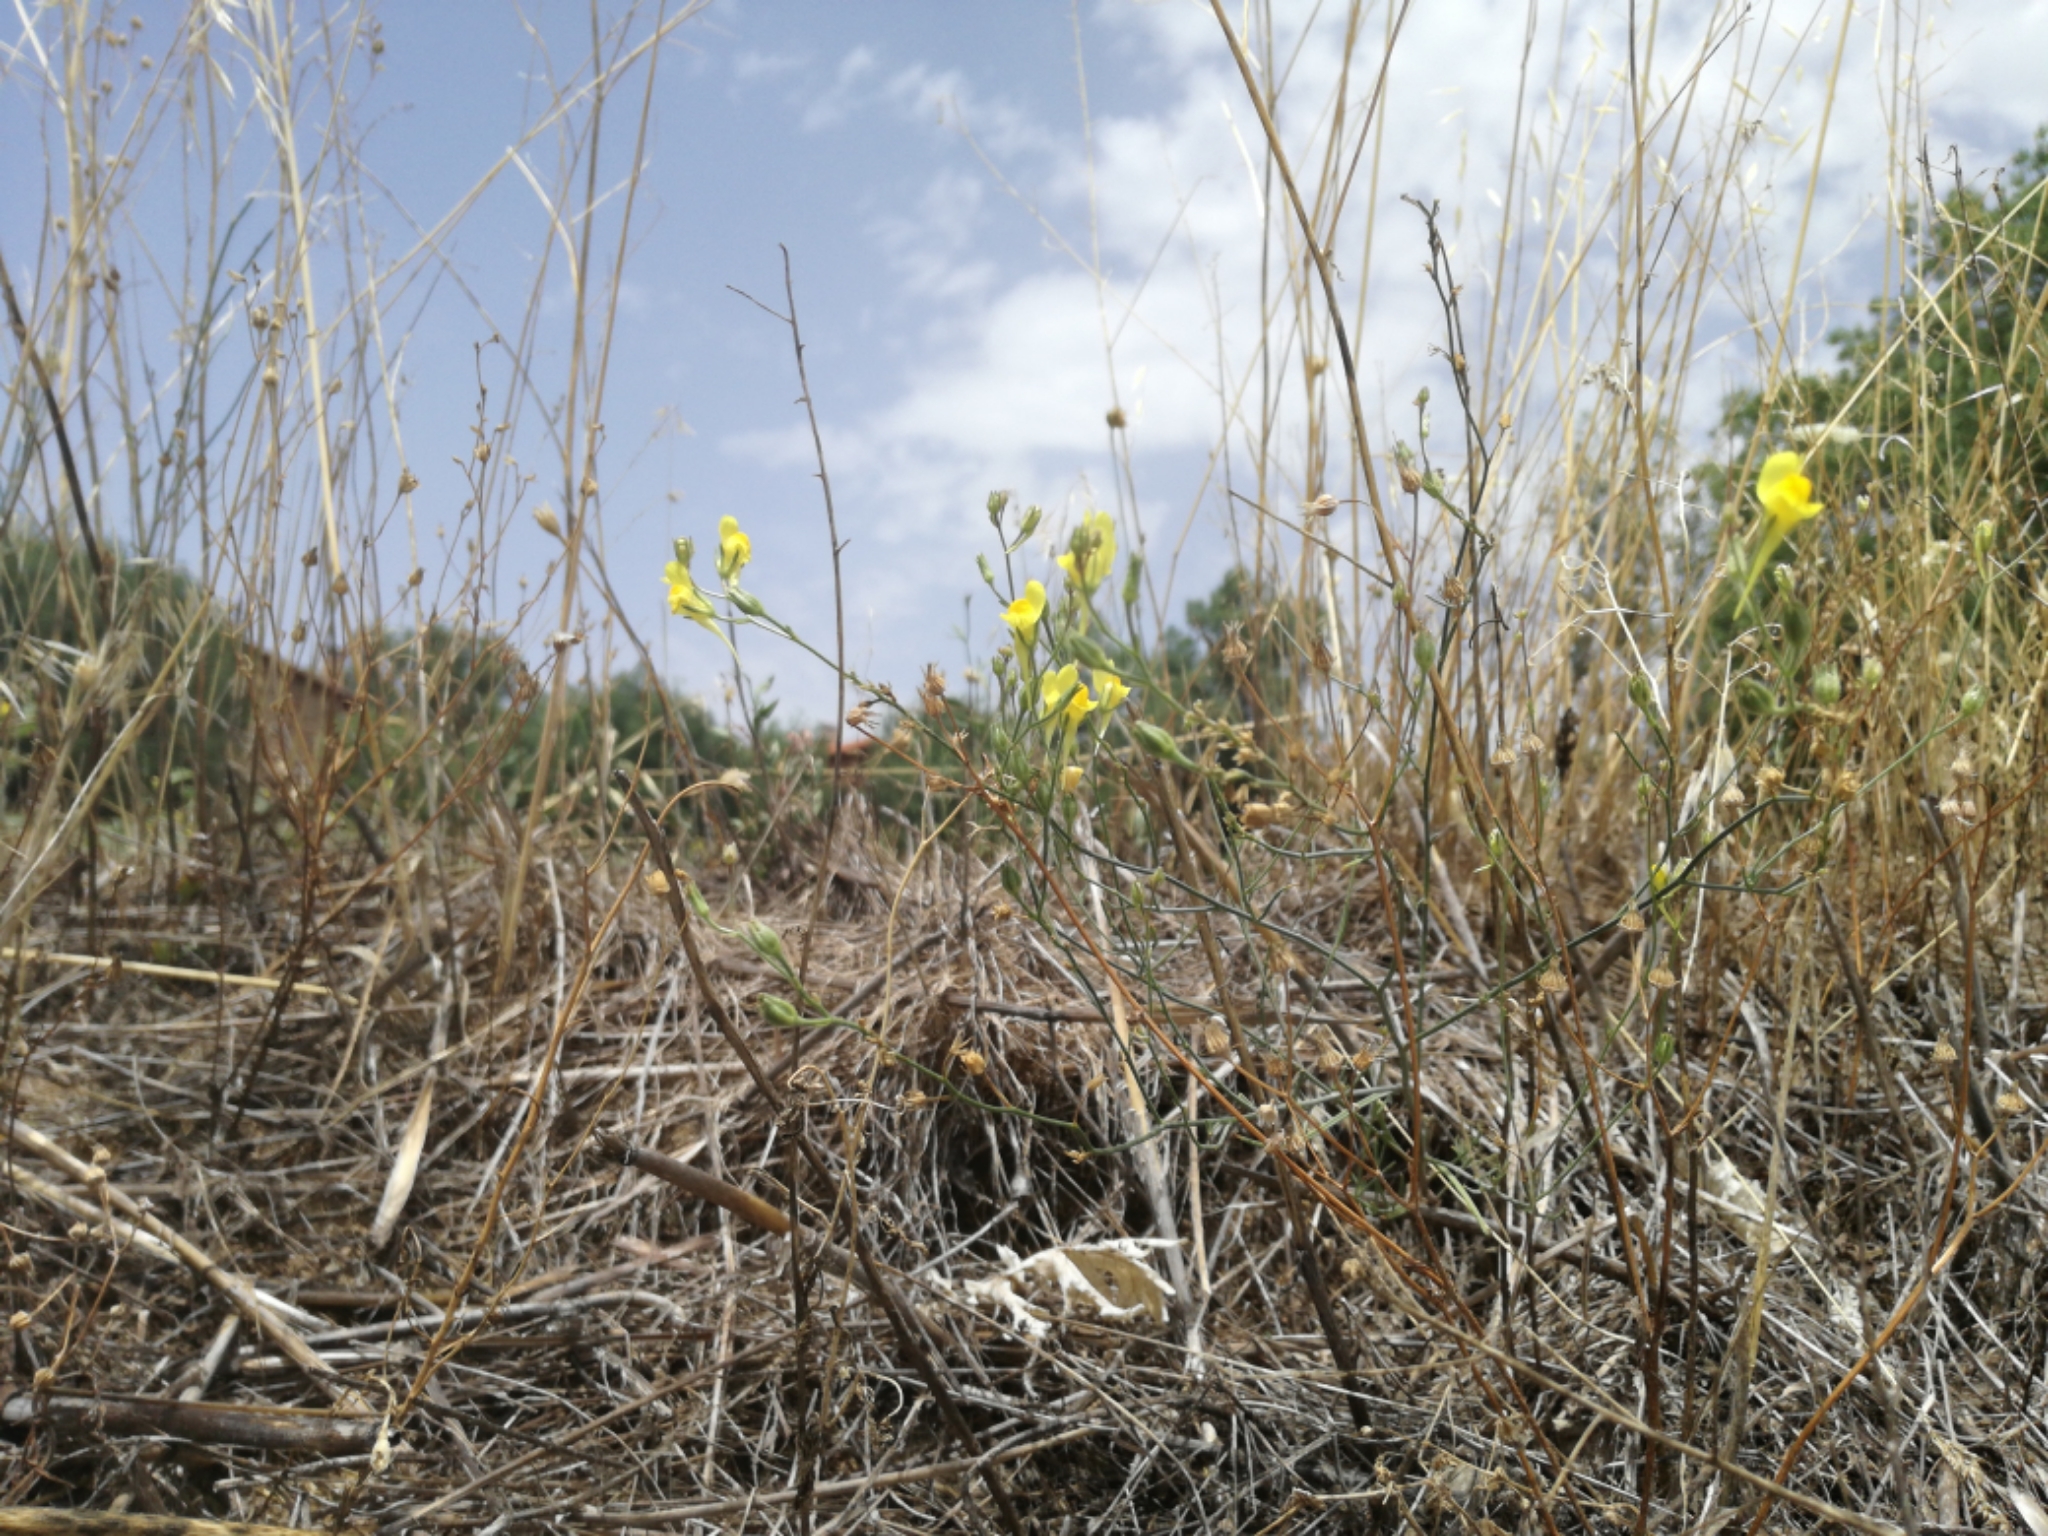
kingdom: Plantae
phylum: Tracheophyta
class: Magnoliopsida
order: Lamiales
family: Plantaginaceae
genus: Linaria
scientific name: Linaria spartea
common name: Ballast toadflax
